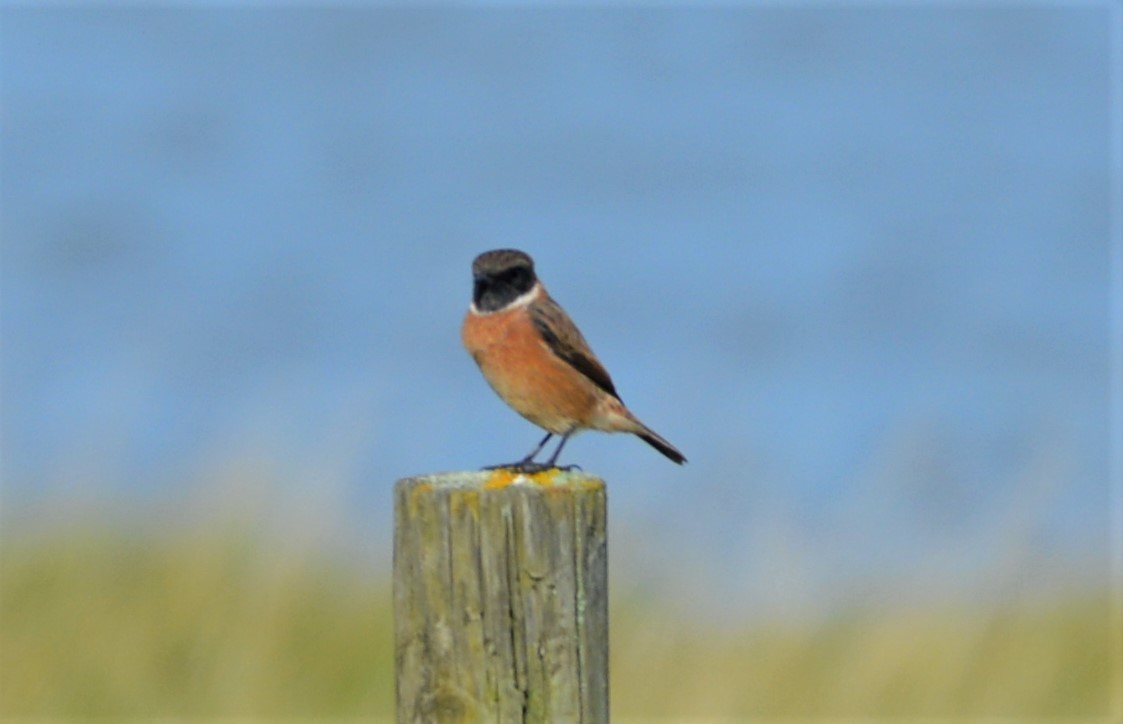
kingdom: Animalia
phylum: Chordata
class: Aves
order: Passeriformes
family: Muscicapidae
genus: Saxicola
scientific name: Saxicola rubicola
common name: European stonechat
